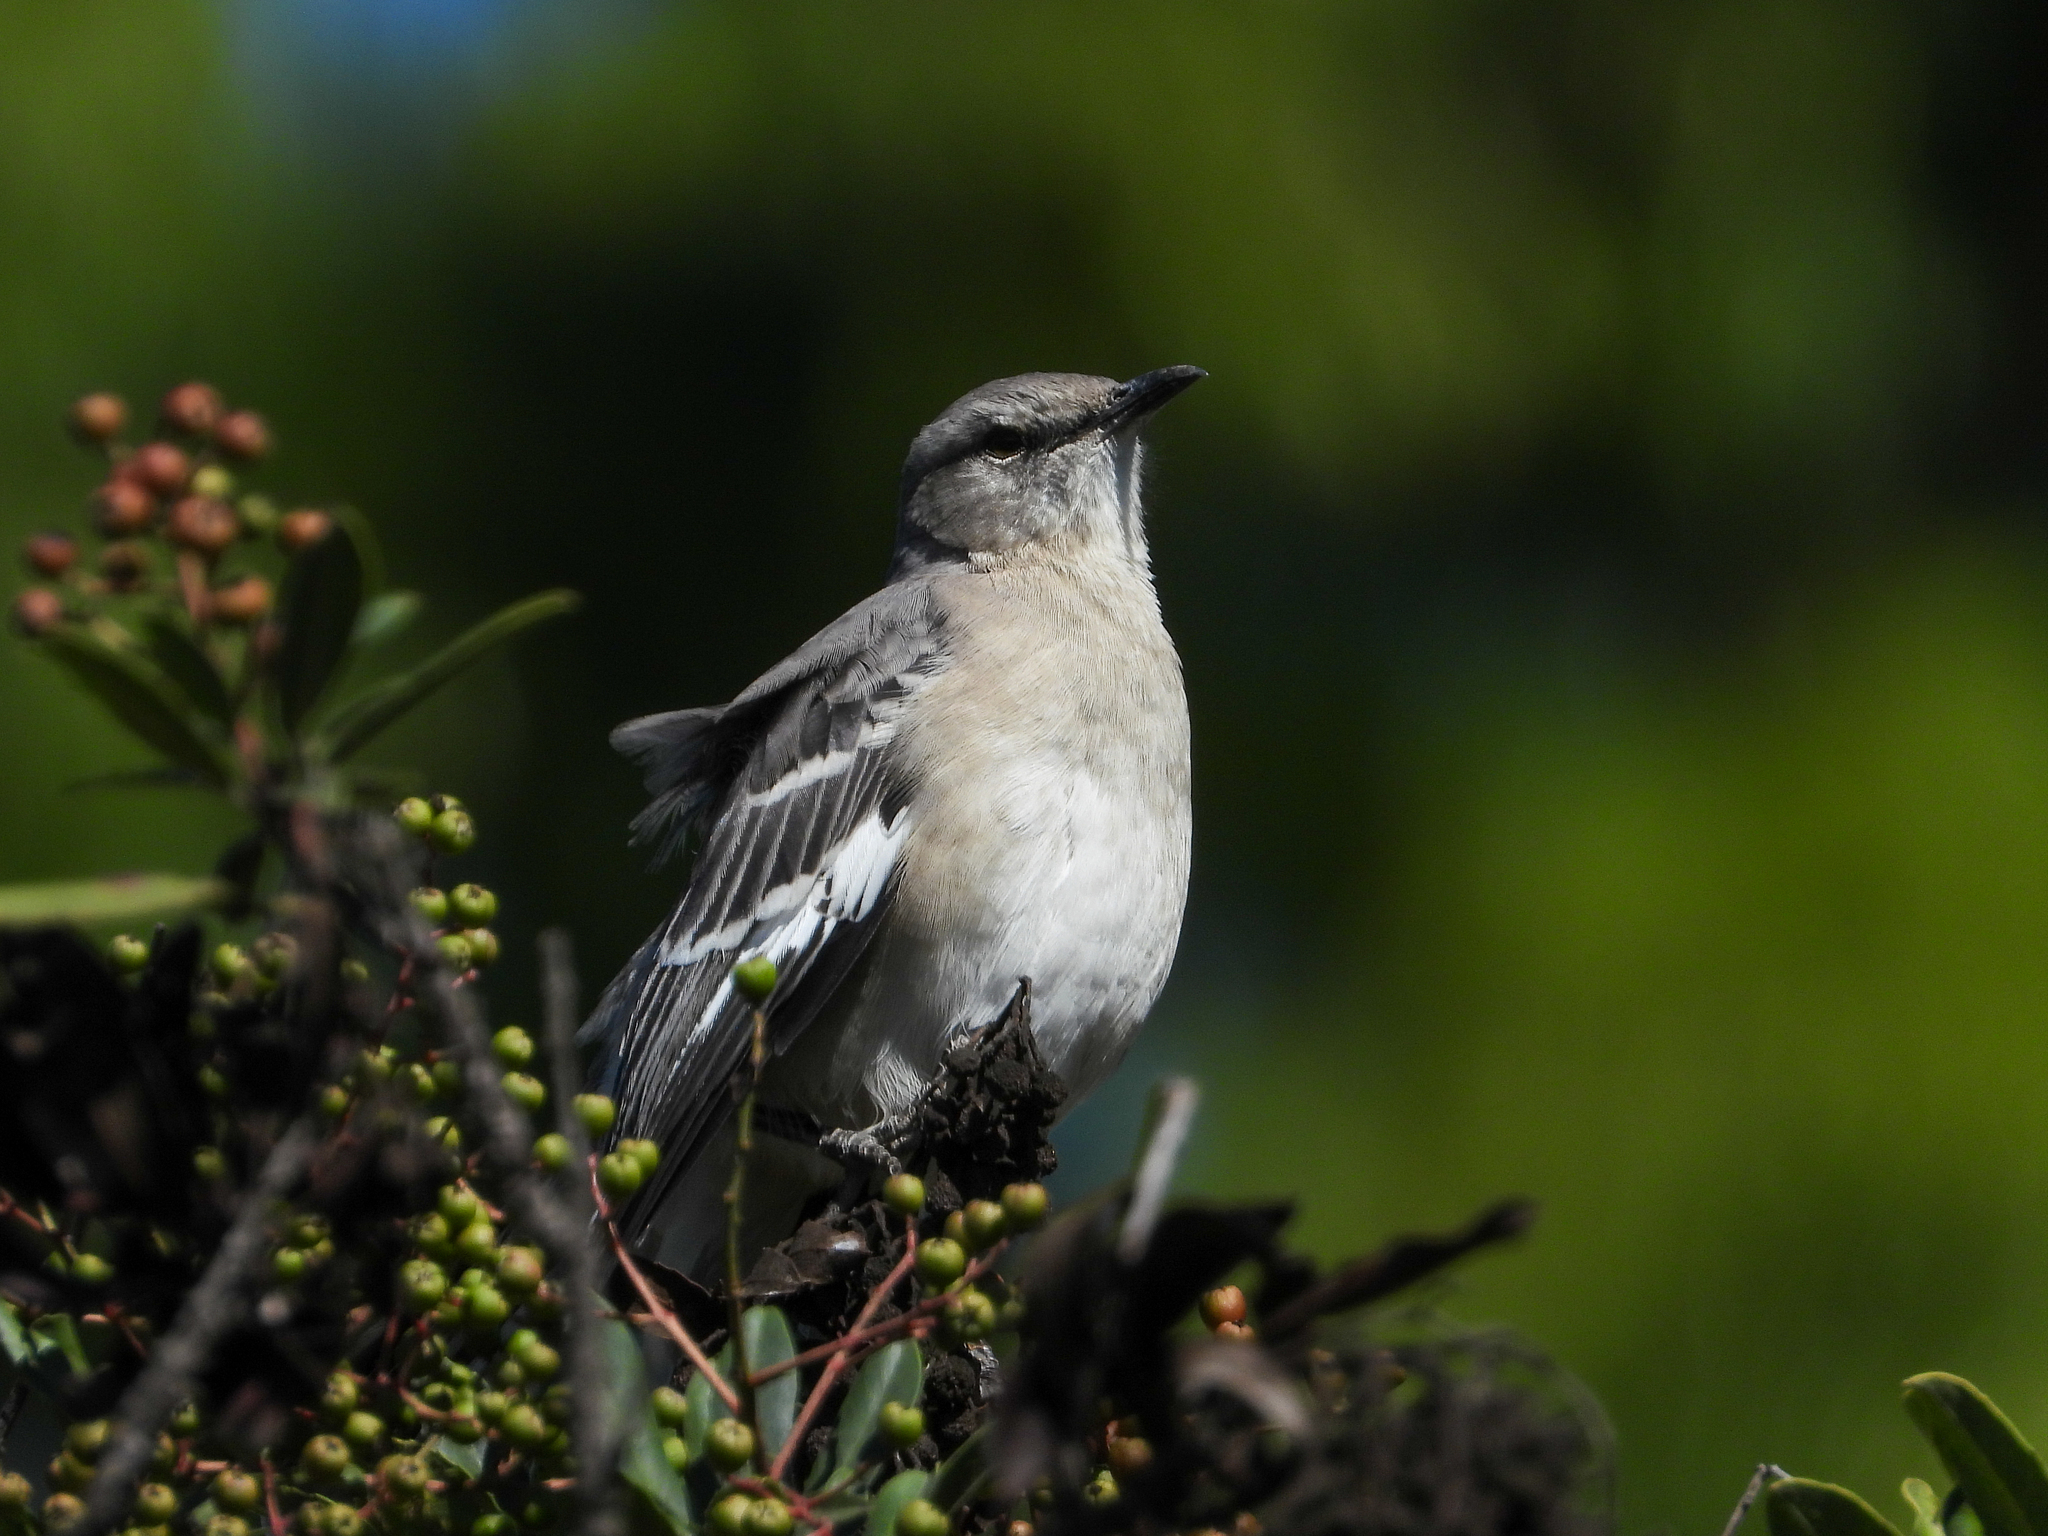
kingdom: Animalia
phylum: Chordata
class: Aves
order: Passeriformes
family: Mimidae
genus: Mimus
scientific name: Mimus polyglottos
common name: Northern mockingbird
